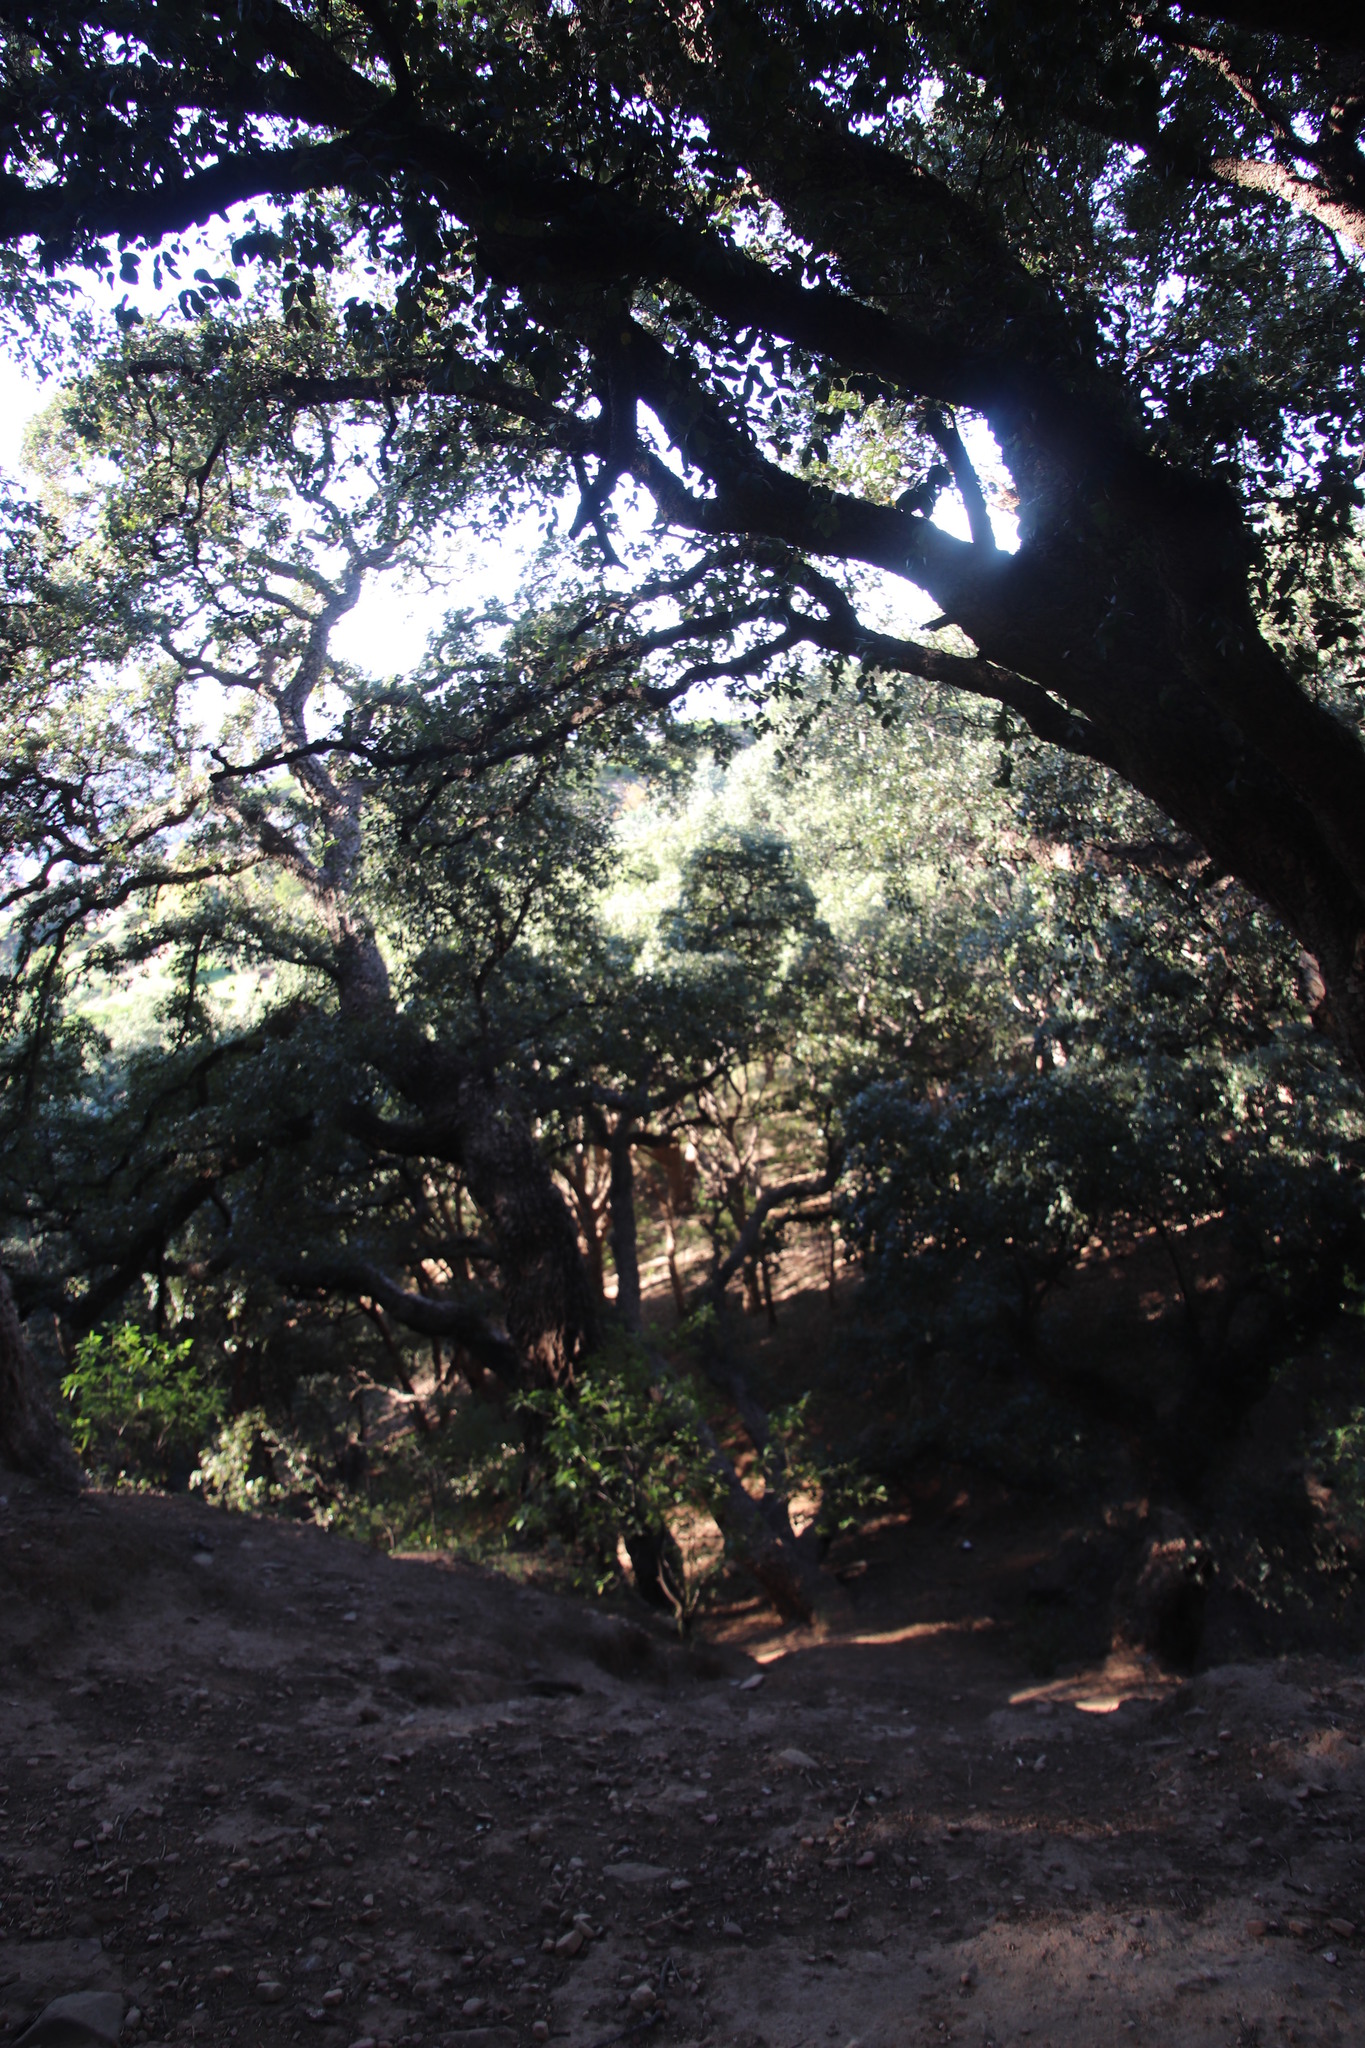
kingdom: Plantae
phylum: Tracheophyta
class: Magnoliopsida
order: Fagales
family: Fagaceae
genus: Quercus
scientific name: Quercus suber
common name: Cork oak
